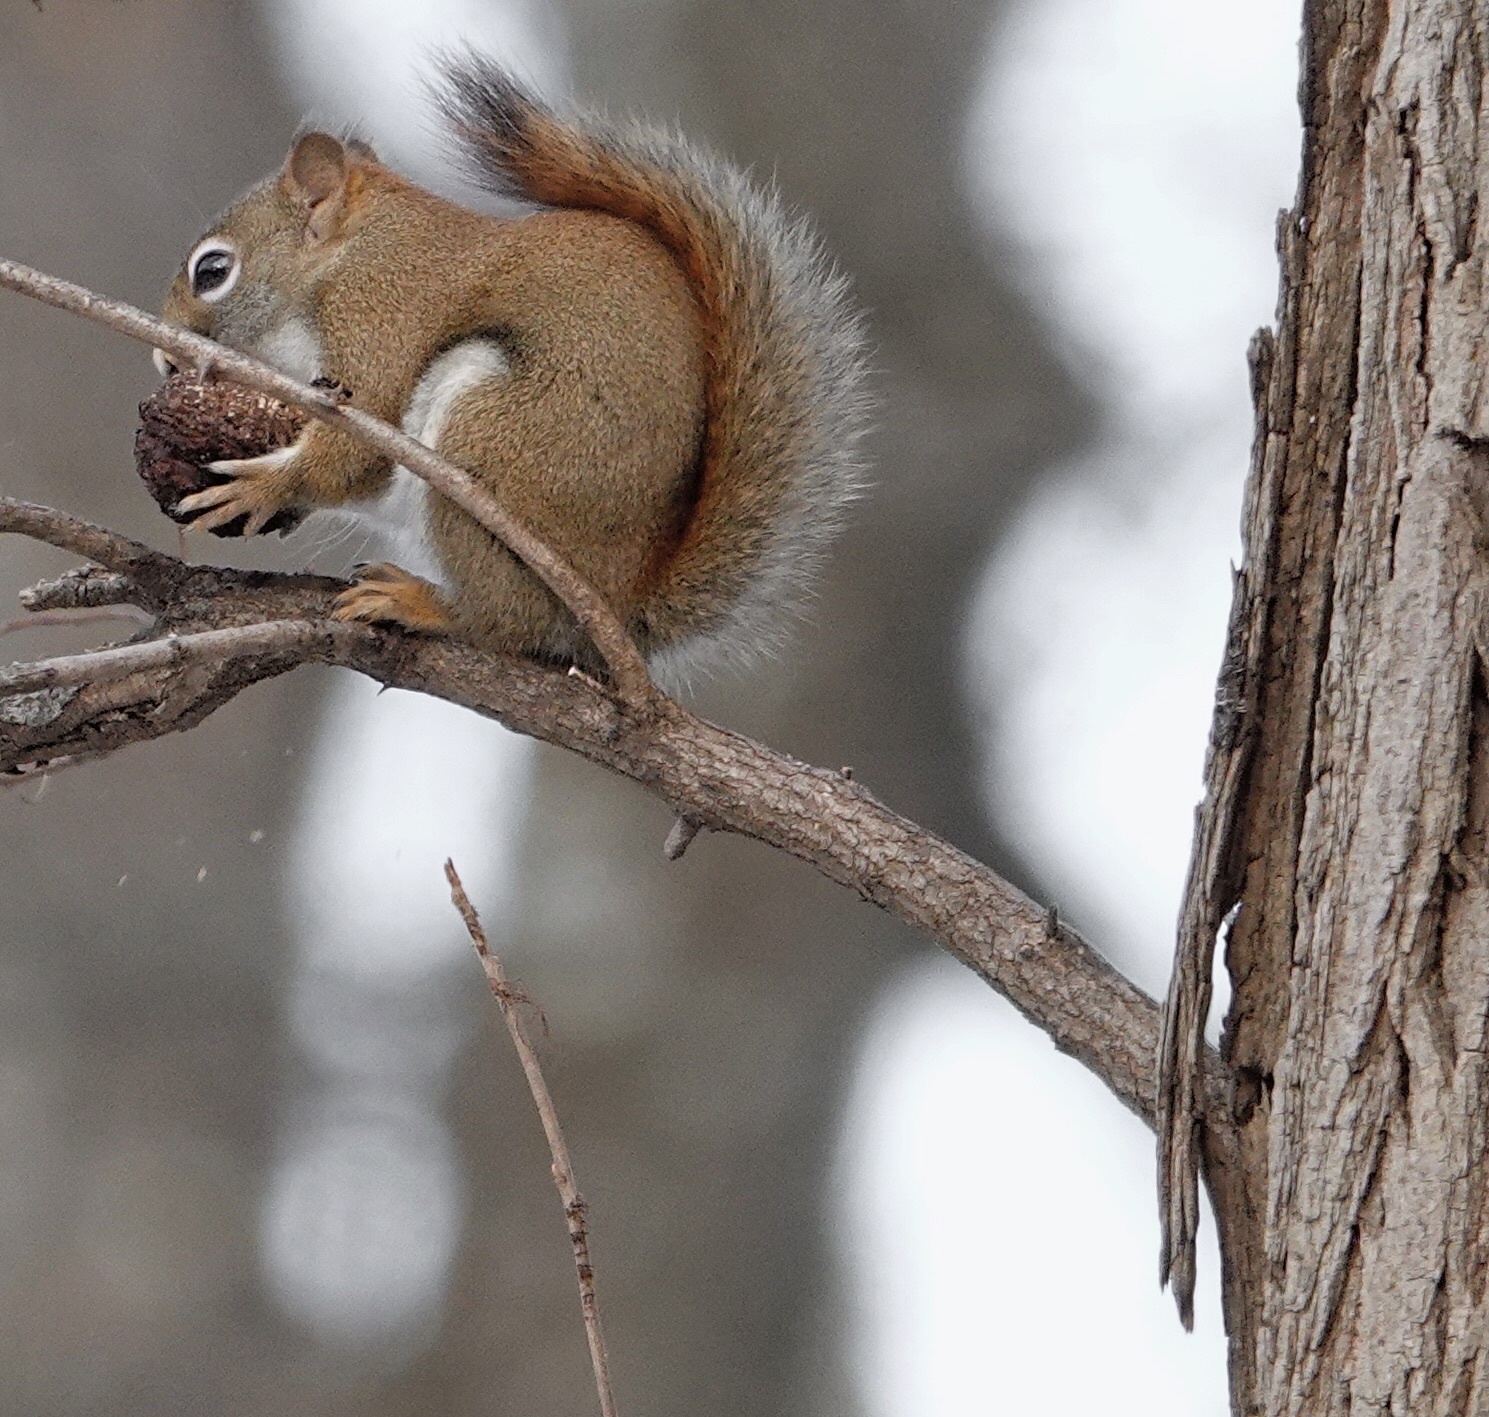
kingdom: Animalia
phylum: Chordata
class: Mammalia
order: Rodentia
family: Sciuridae
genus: Tamiasciurus
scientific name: Tamiasciurus hudsonicus
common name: Red squirrel
